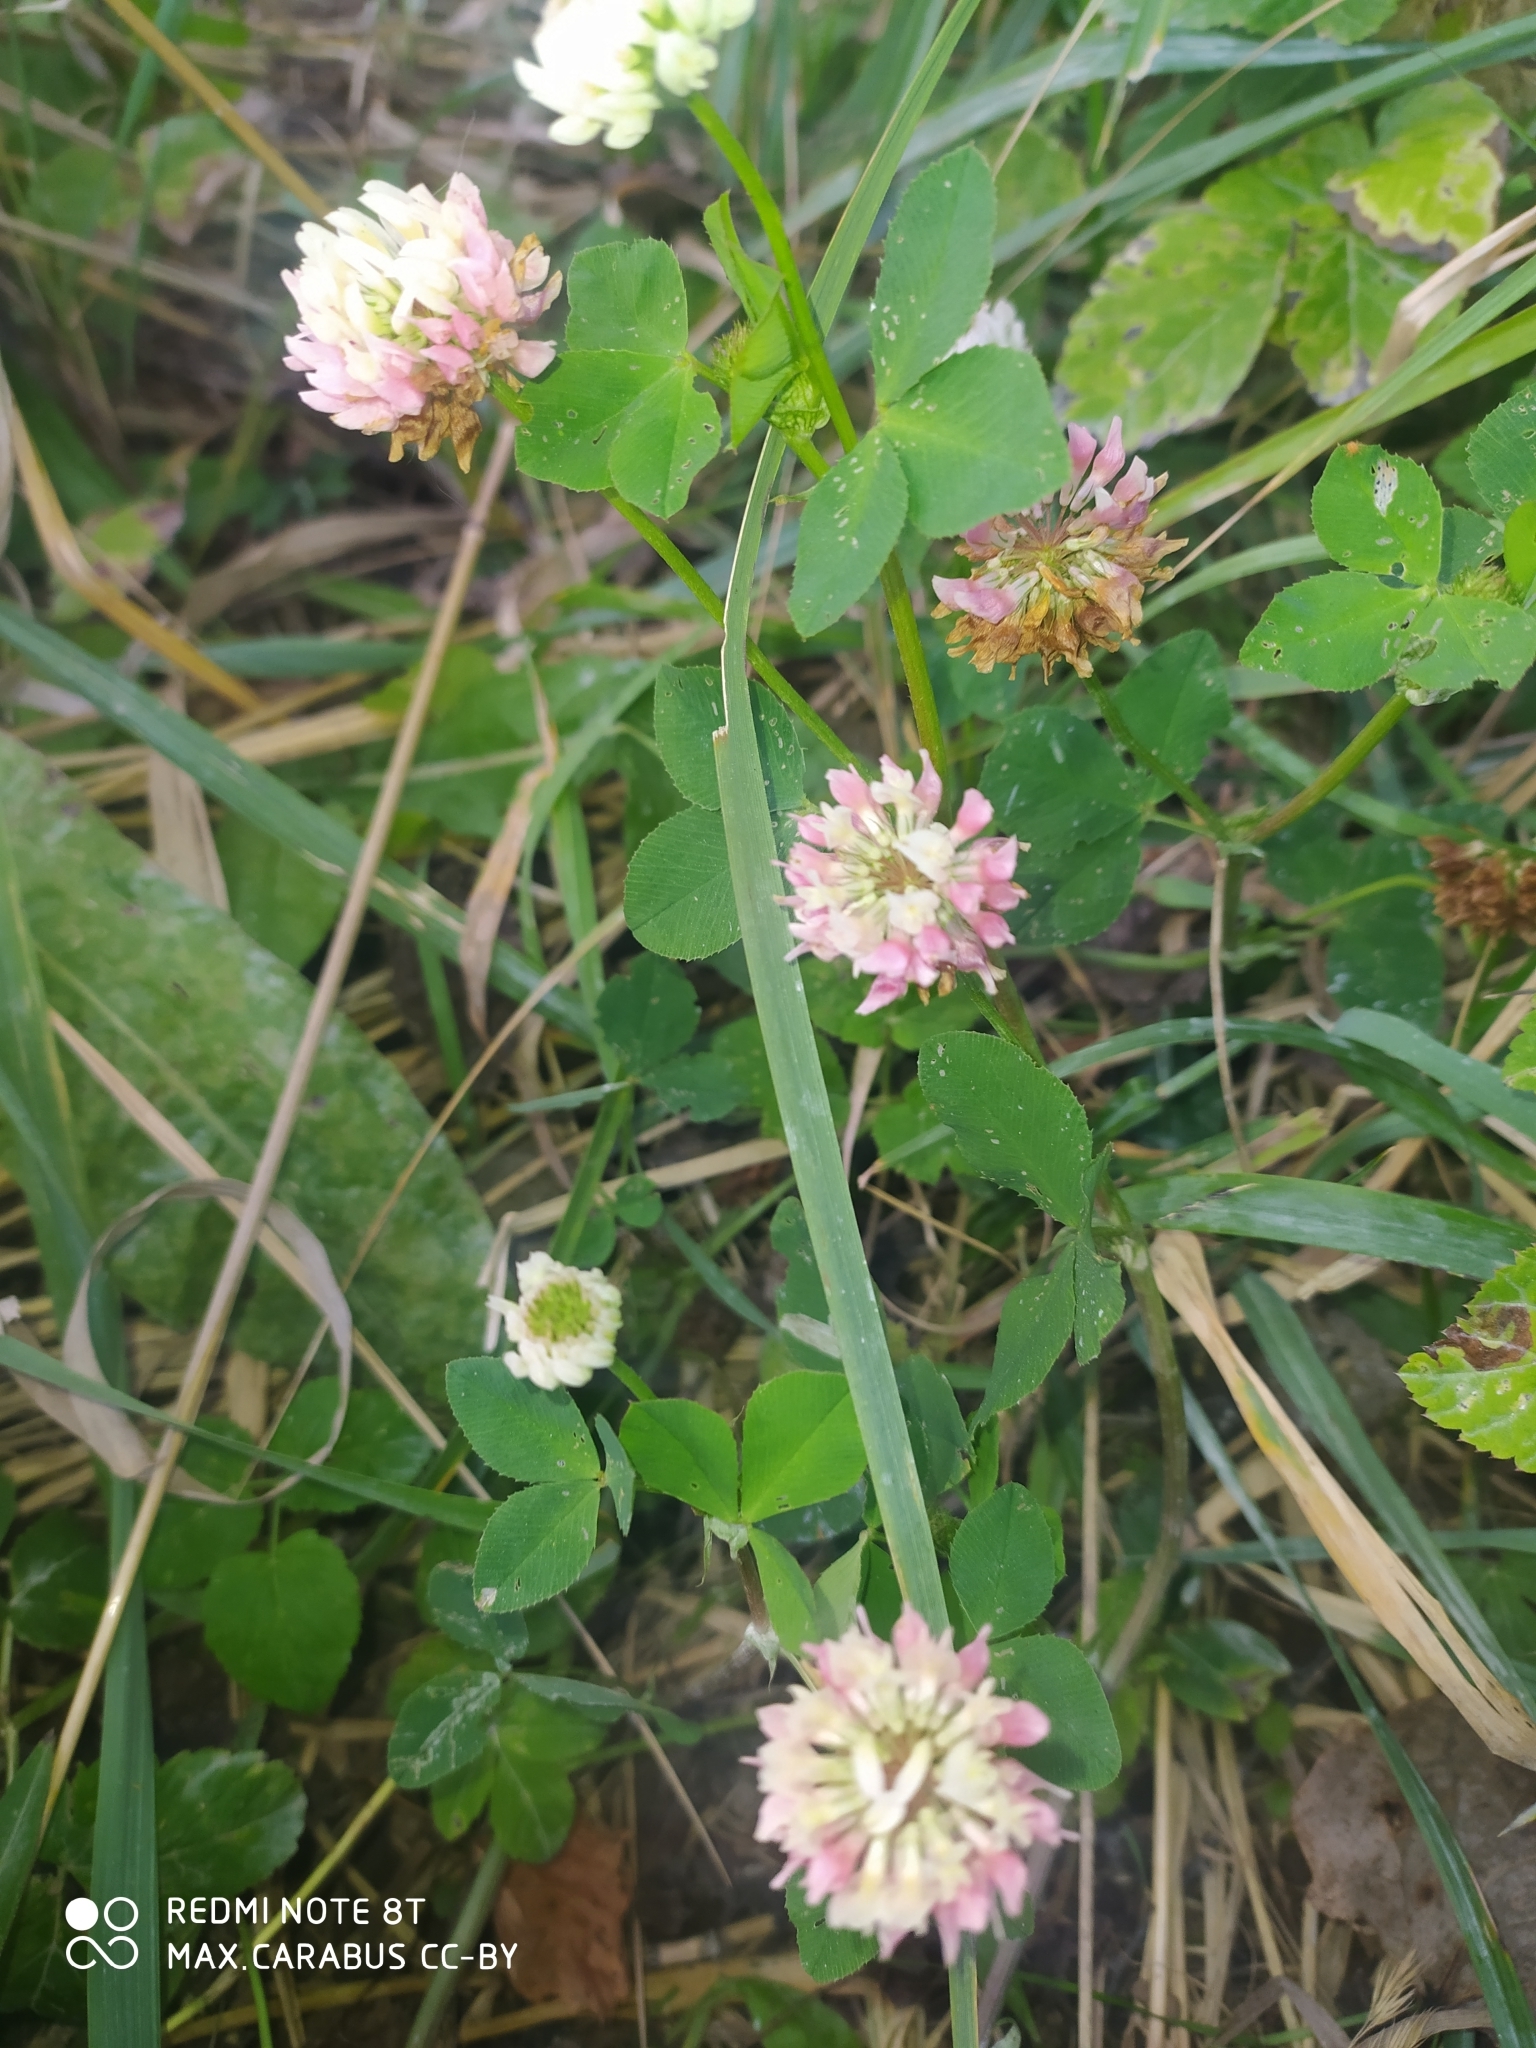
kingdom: Plantae
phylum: Tracheophyta
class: Magnoliopsida
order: Fabales
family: Fabaceae
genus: Trifolium
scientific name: Trifolium hybridum
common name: Alsike clover
